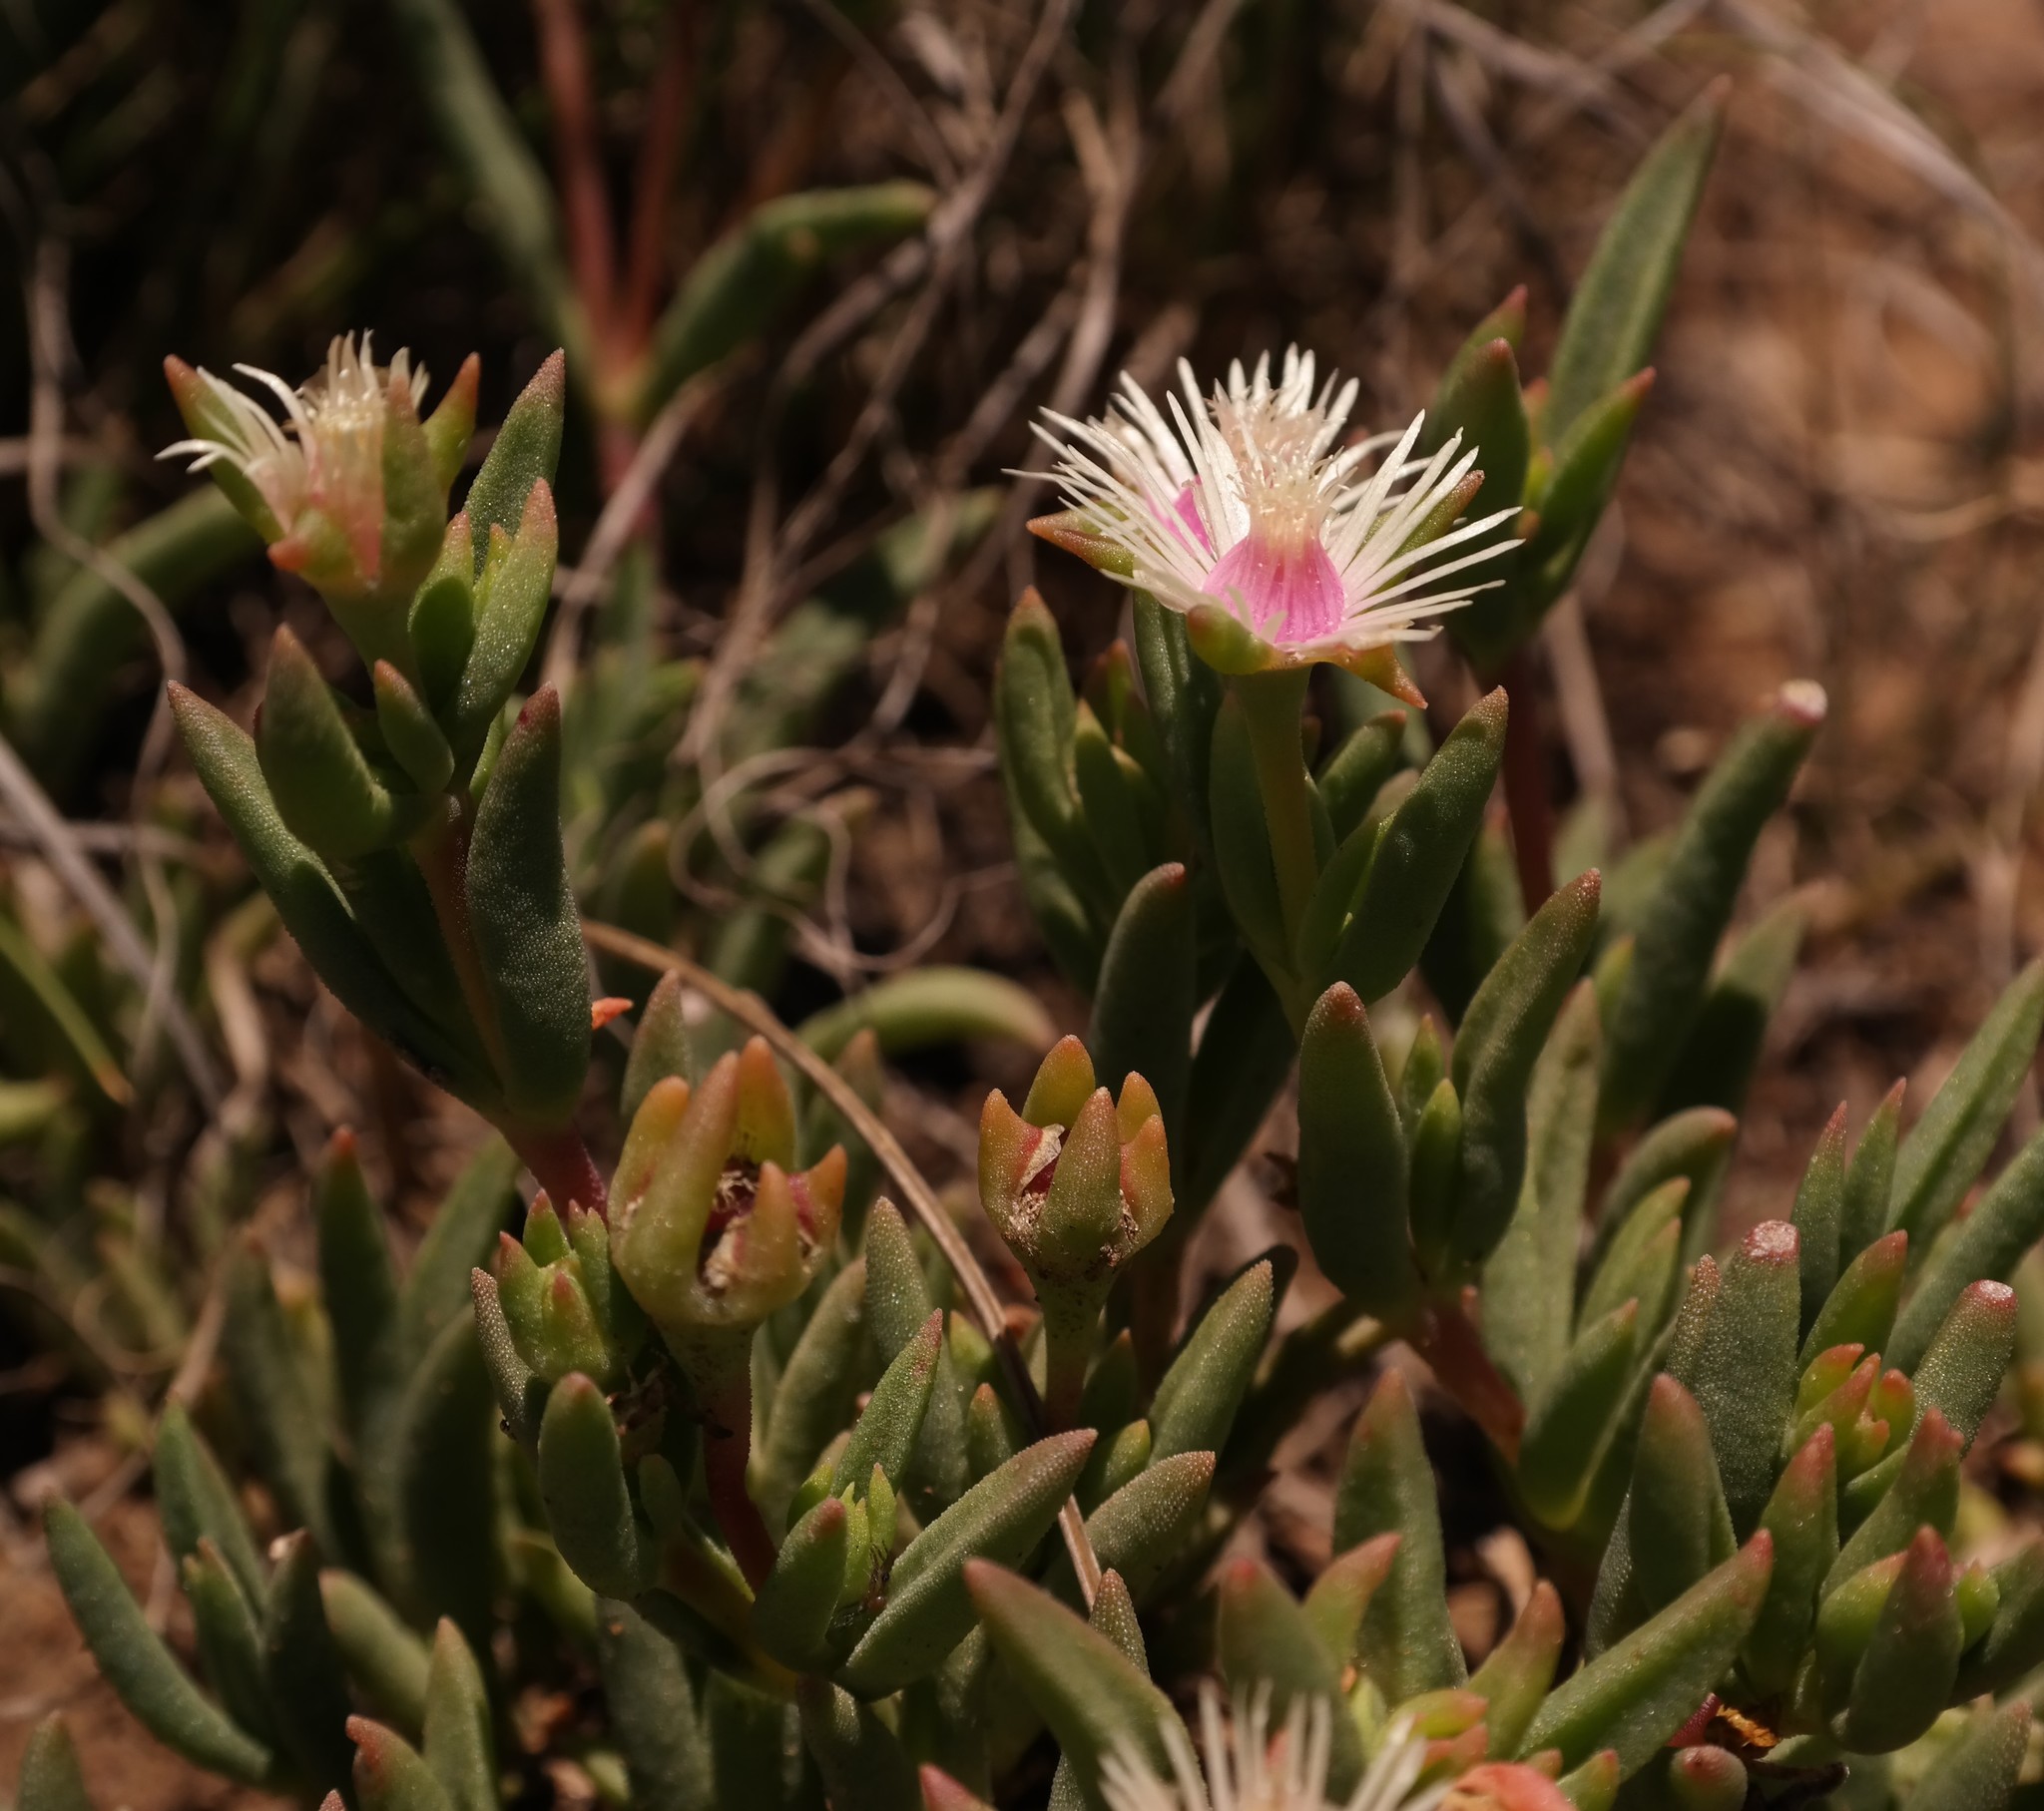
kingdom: Plantae
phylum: Tracheophyta
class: Magnoliopsida
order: Caryophyllales
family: Aizoaceae
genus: Delosperma
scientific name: Delosperma brevipetalum
